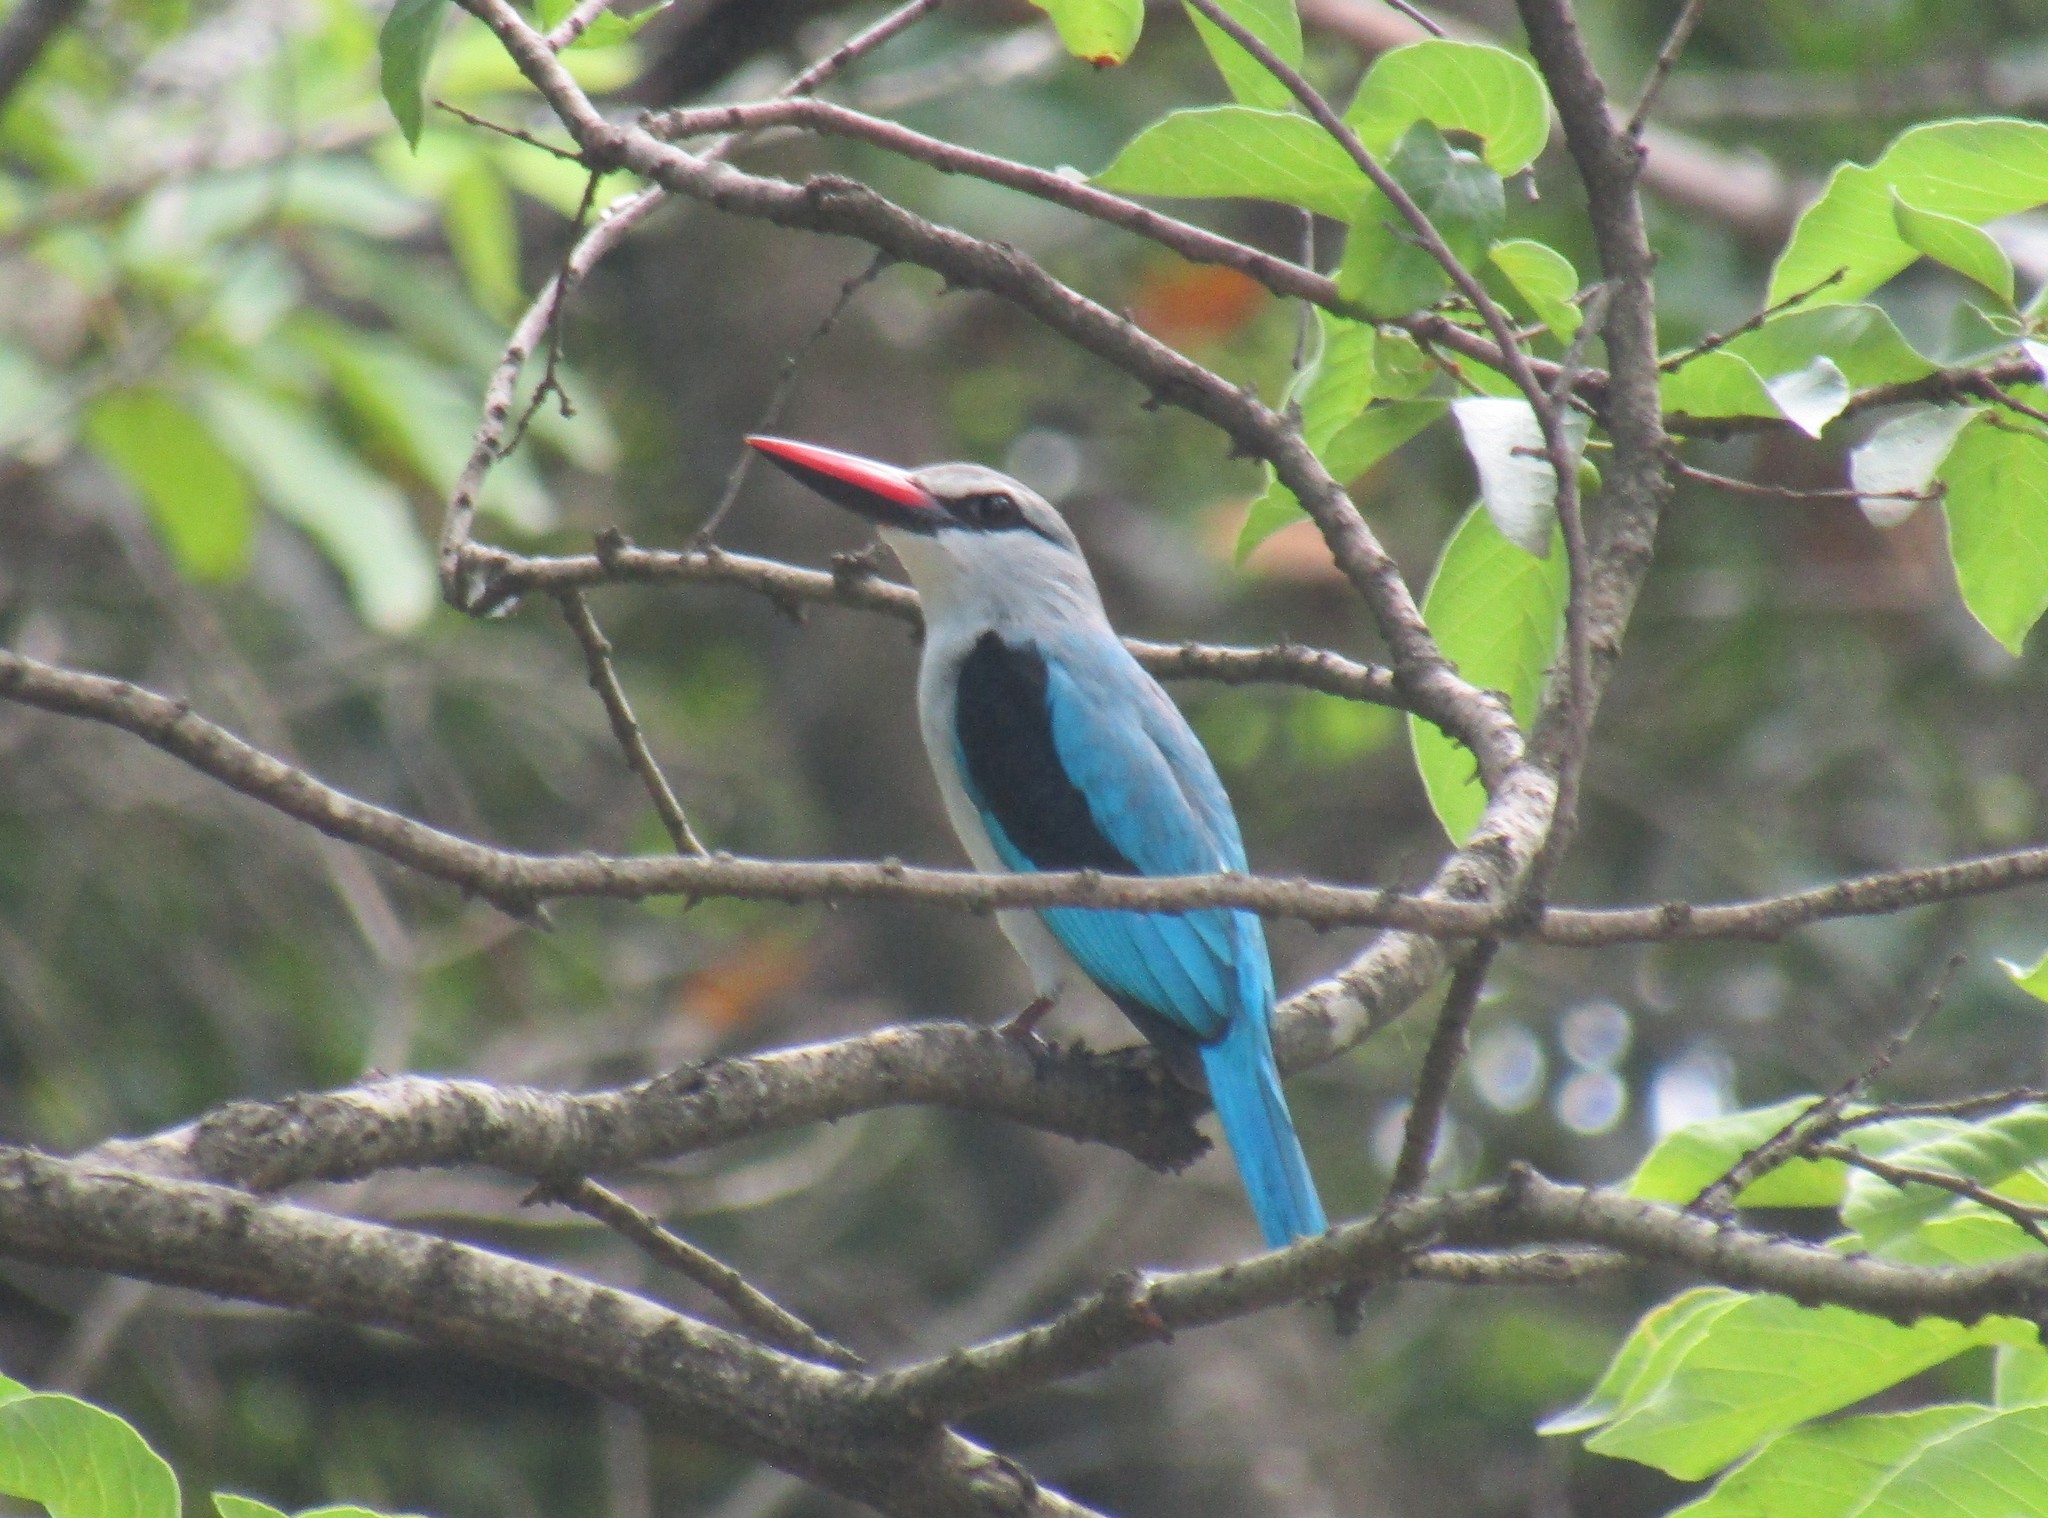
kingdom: Animalia
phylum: Chordata
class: Aves
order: Coraciiformes
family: Alcedinidae
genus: Halcyon
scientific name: Halcyon senegalensis
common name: Woodland kingfisher
